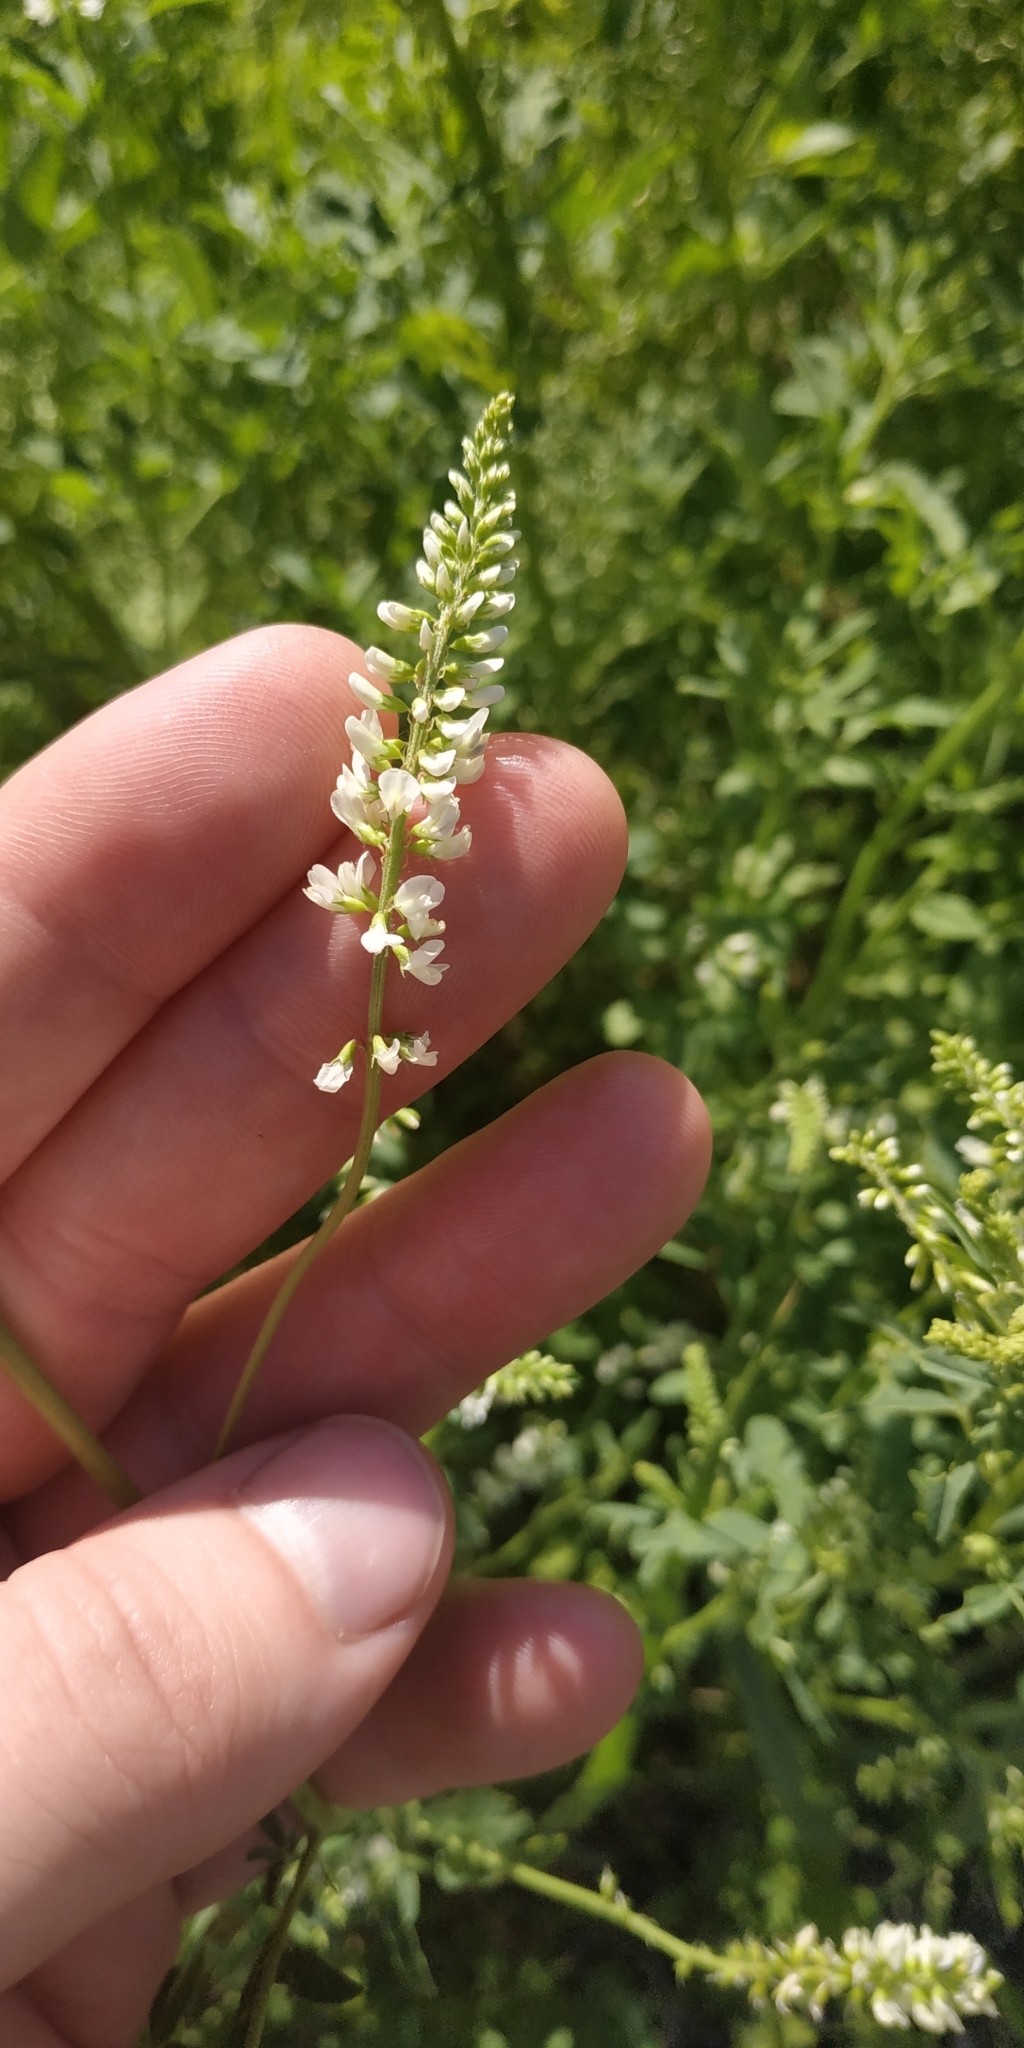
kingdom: Plantae
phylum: Tracheophyta
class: Magnoliopsida
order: Fabales
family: Fabaceae
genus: Melilotus
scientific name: Melilotus albus
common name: White melilot
